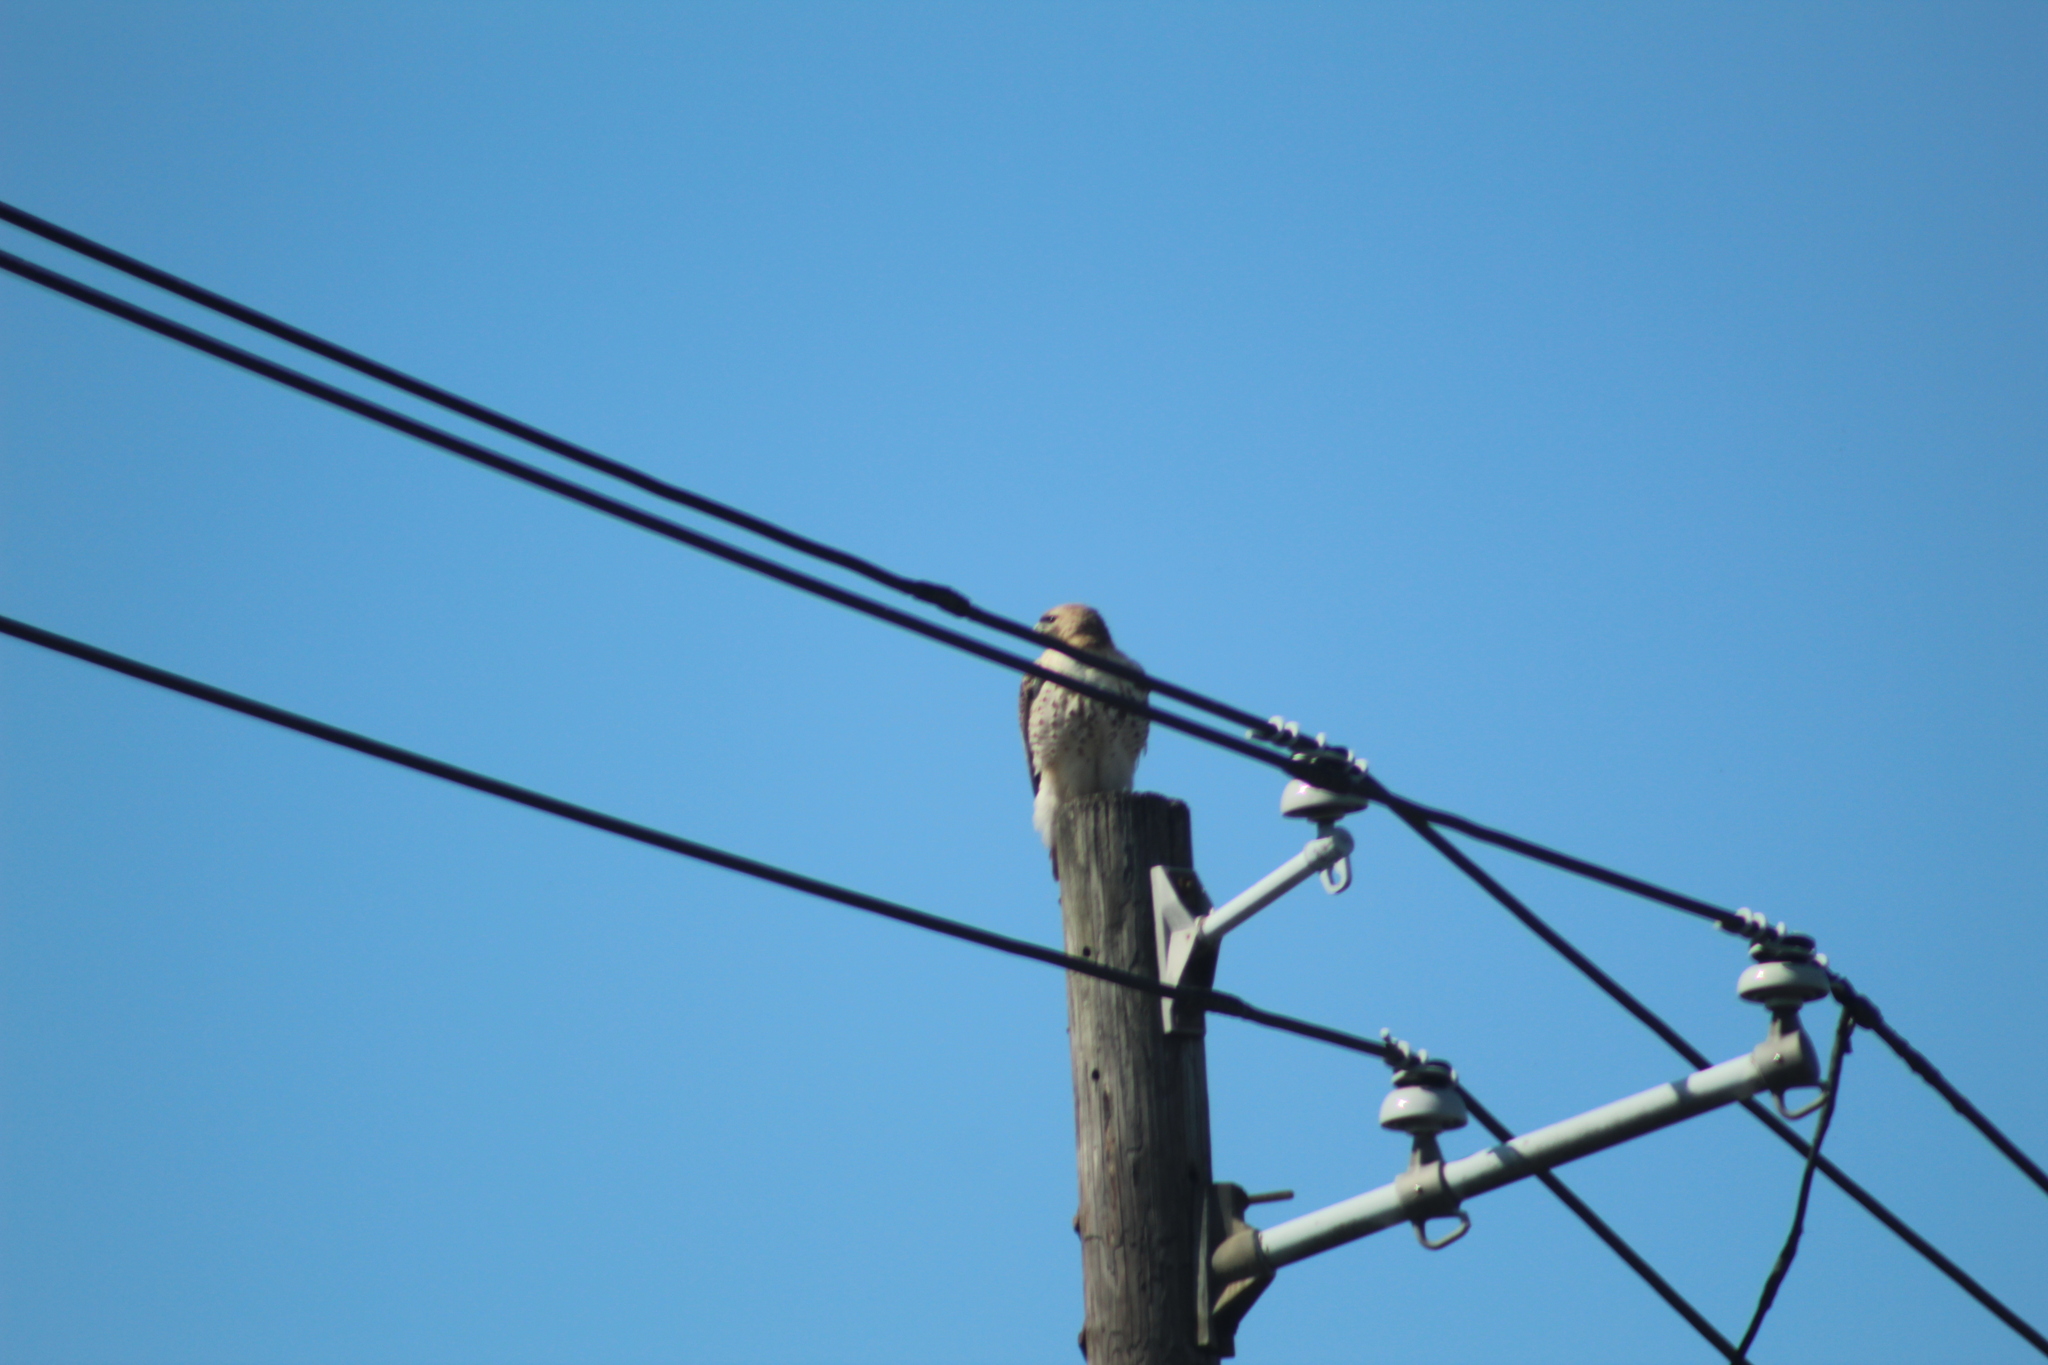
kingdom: Animalia
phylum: Chordata
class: Aves
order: Accipitriformes
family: Accipitridae
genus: Buteo
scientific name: Buteo jamaicensis
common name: Red-tailed hawk
